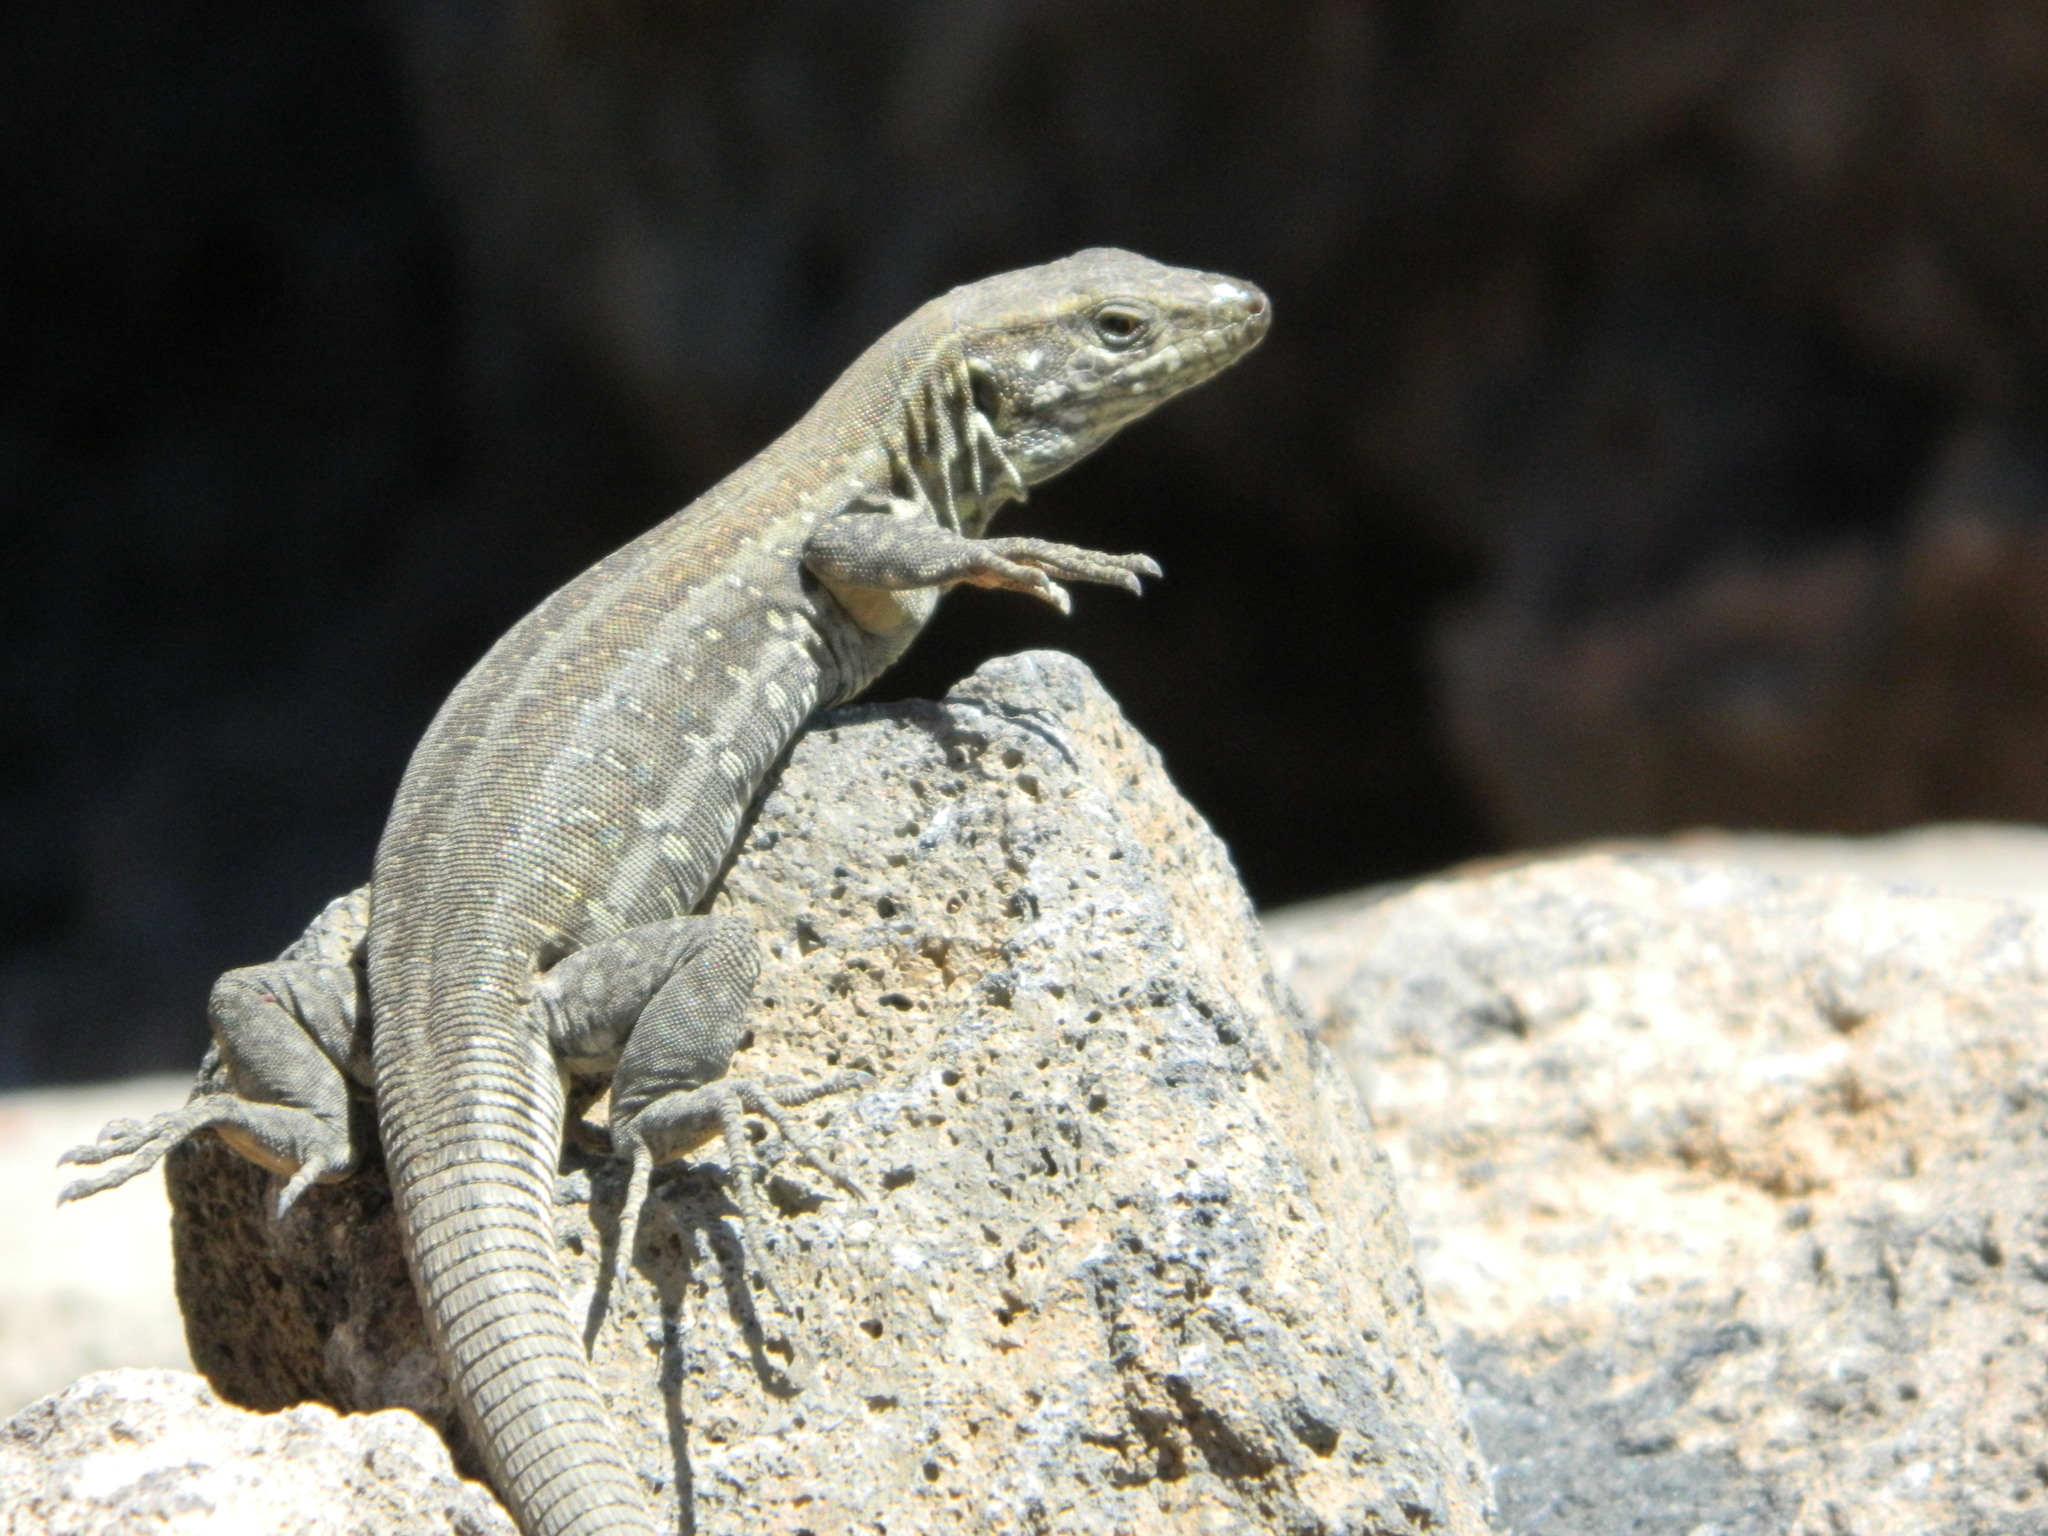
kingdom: Animalia
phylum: Chordata
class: Squamata
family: Lacertidae
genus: Gallotia
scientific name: Gallotia galloti
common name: Gallot's lizard
